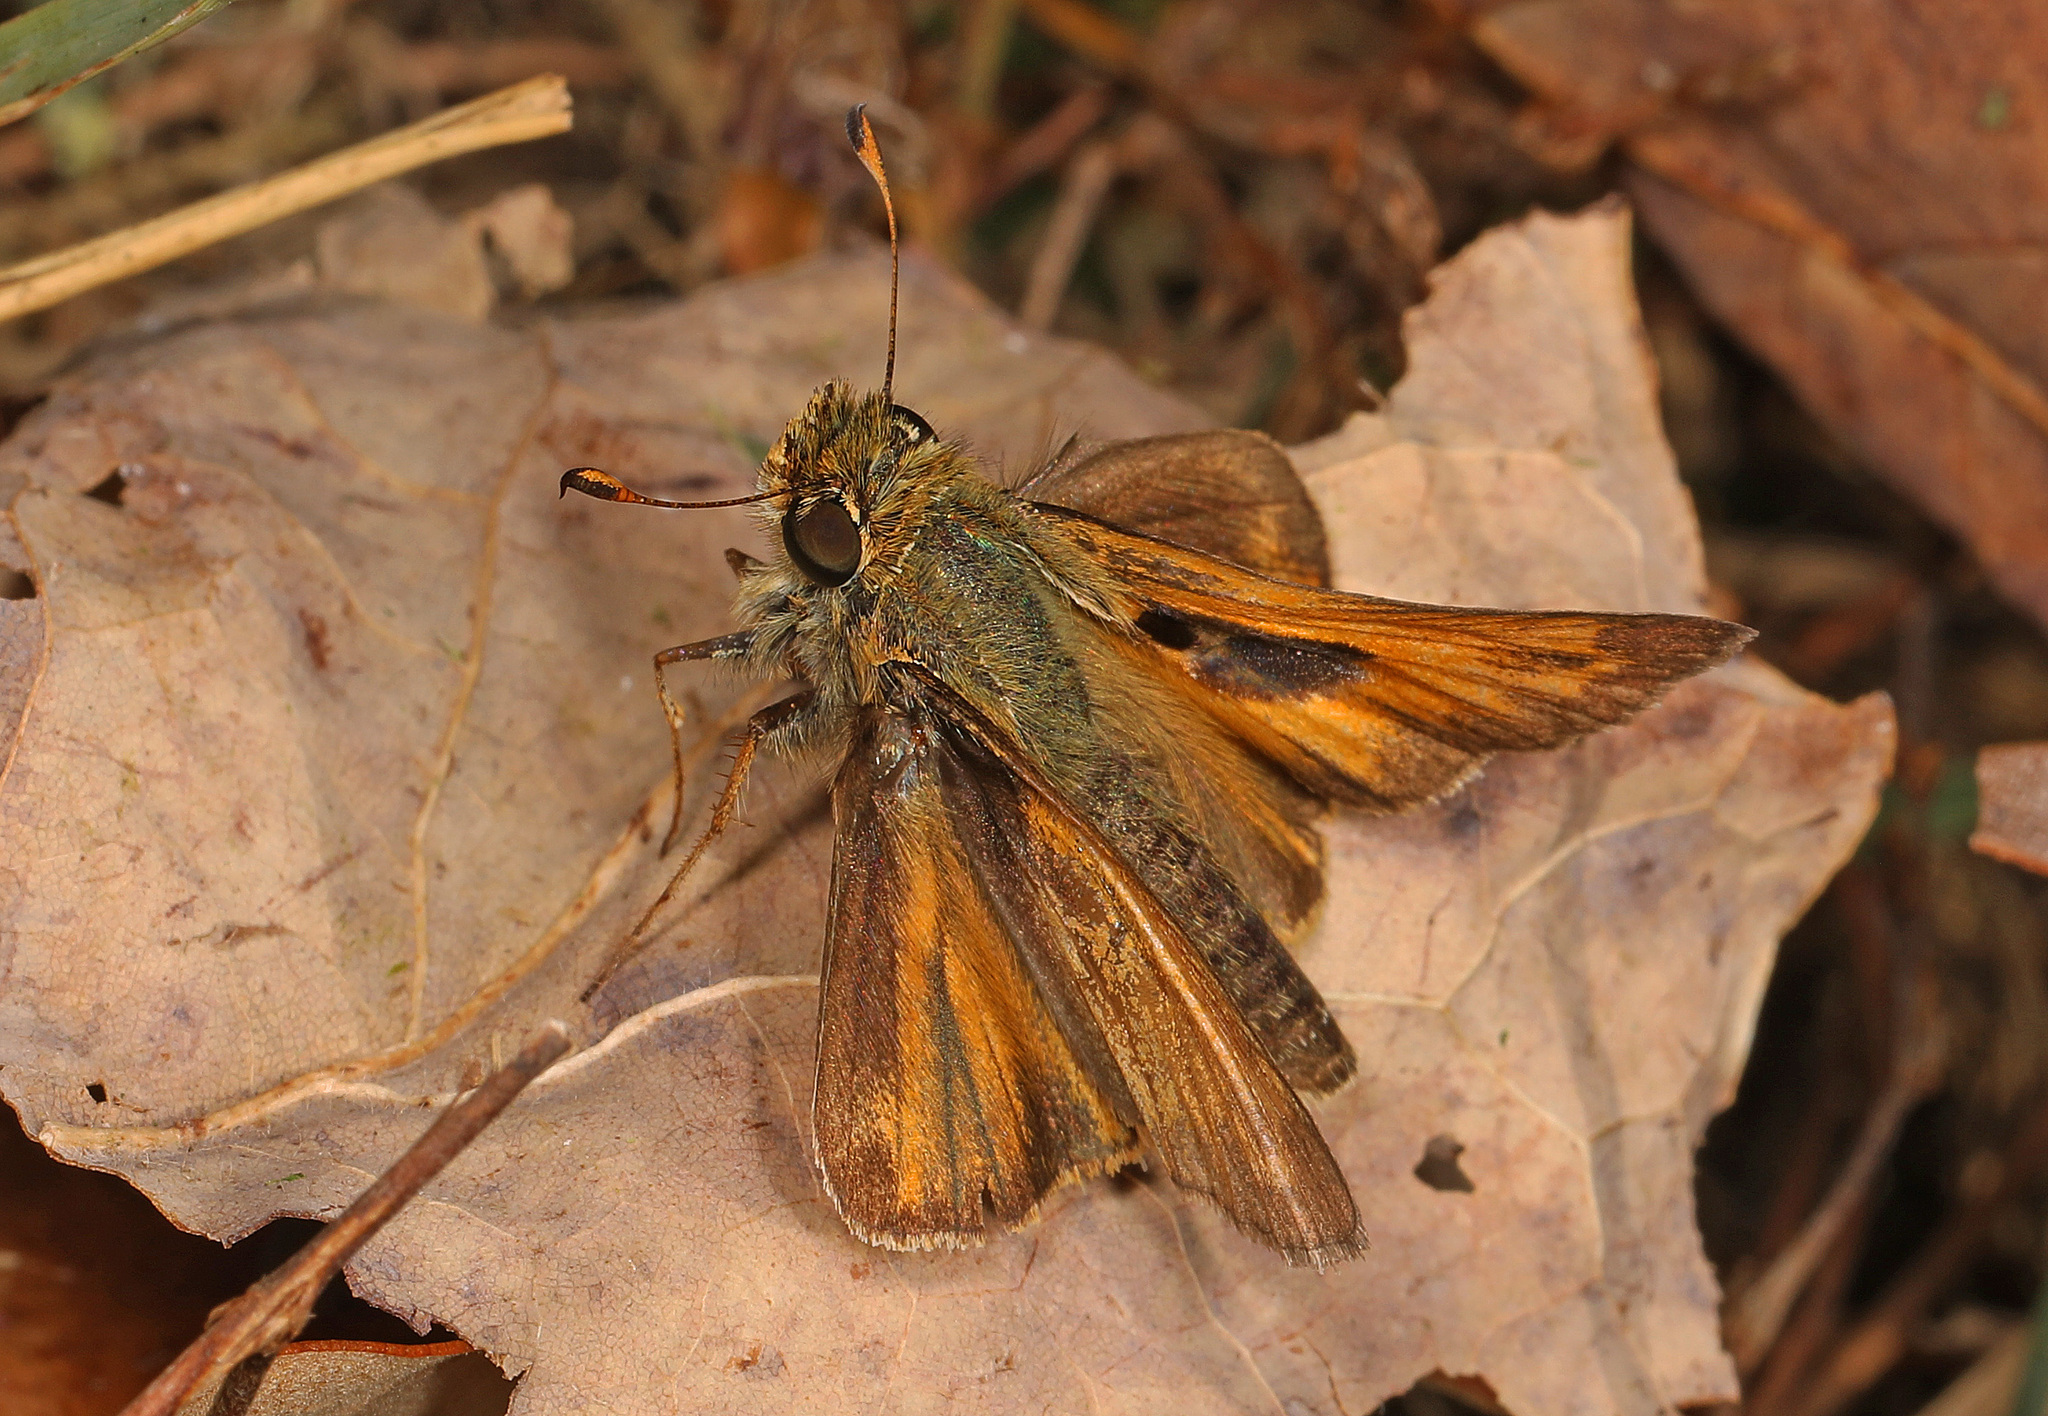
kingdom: Animalia
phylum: Arthropoda
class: Insecta
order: Lepidoptera
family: Hesperiidae
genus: Atalopedes
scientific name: Atalopedes
